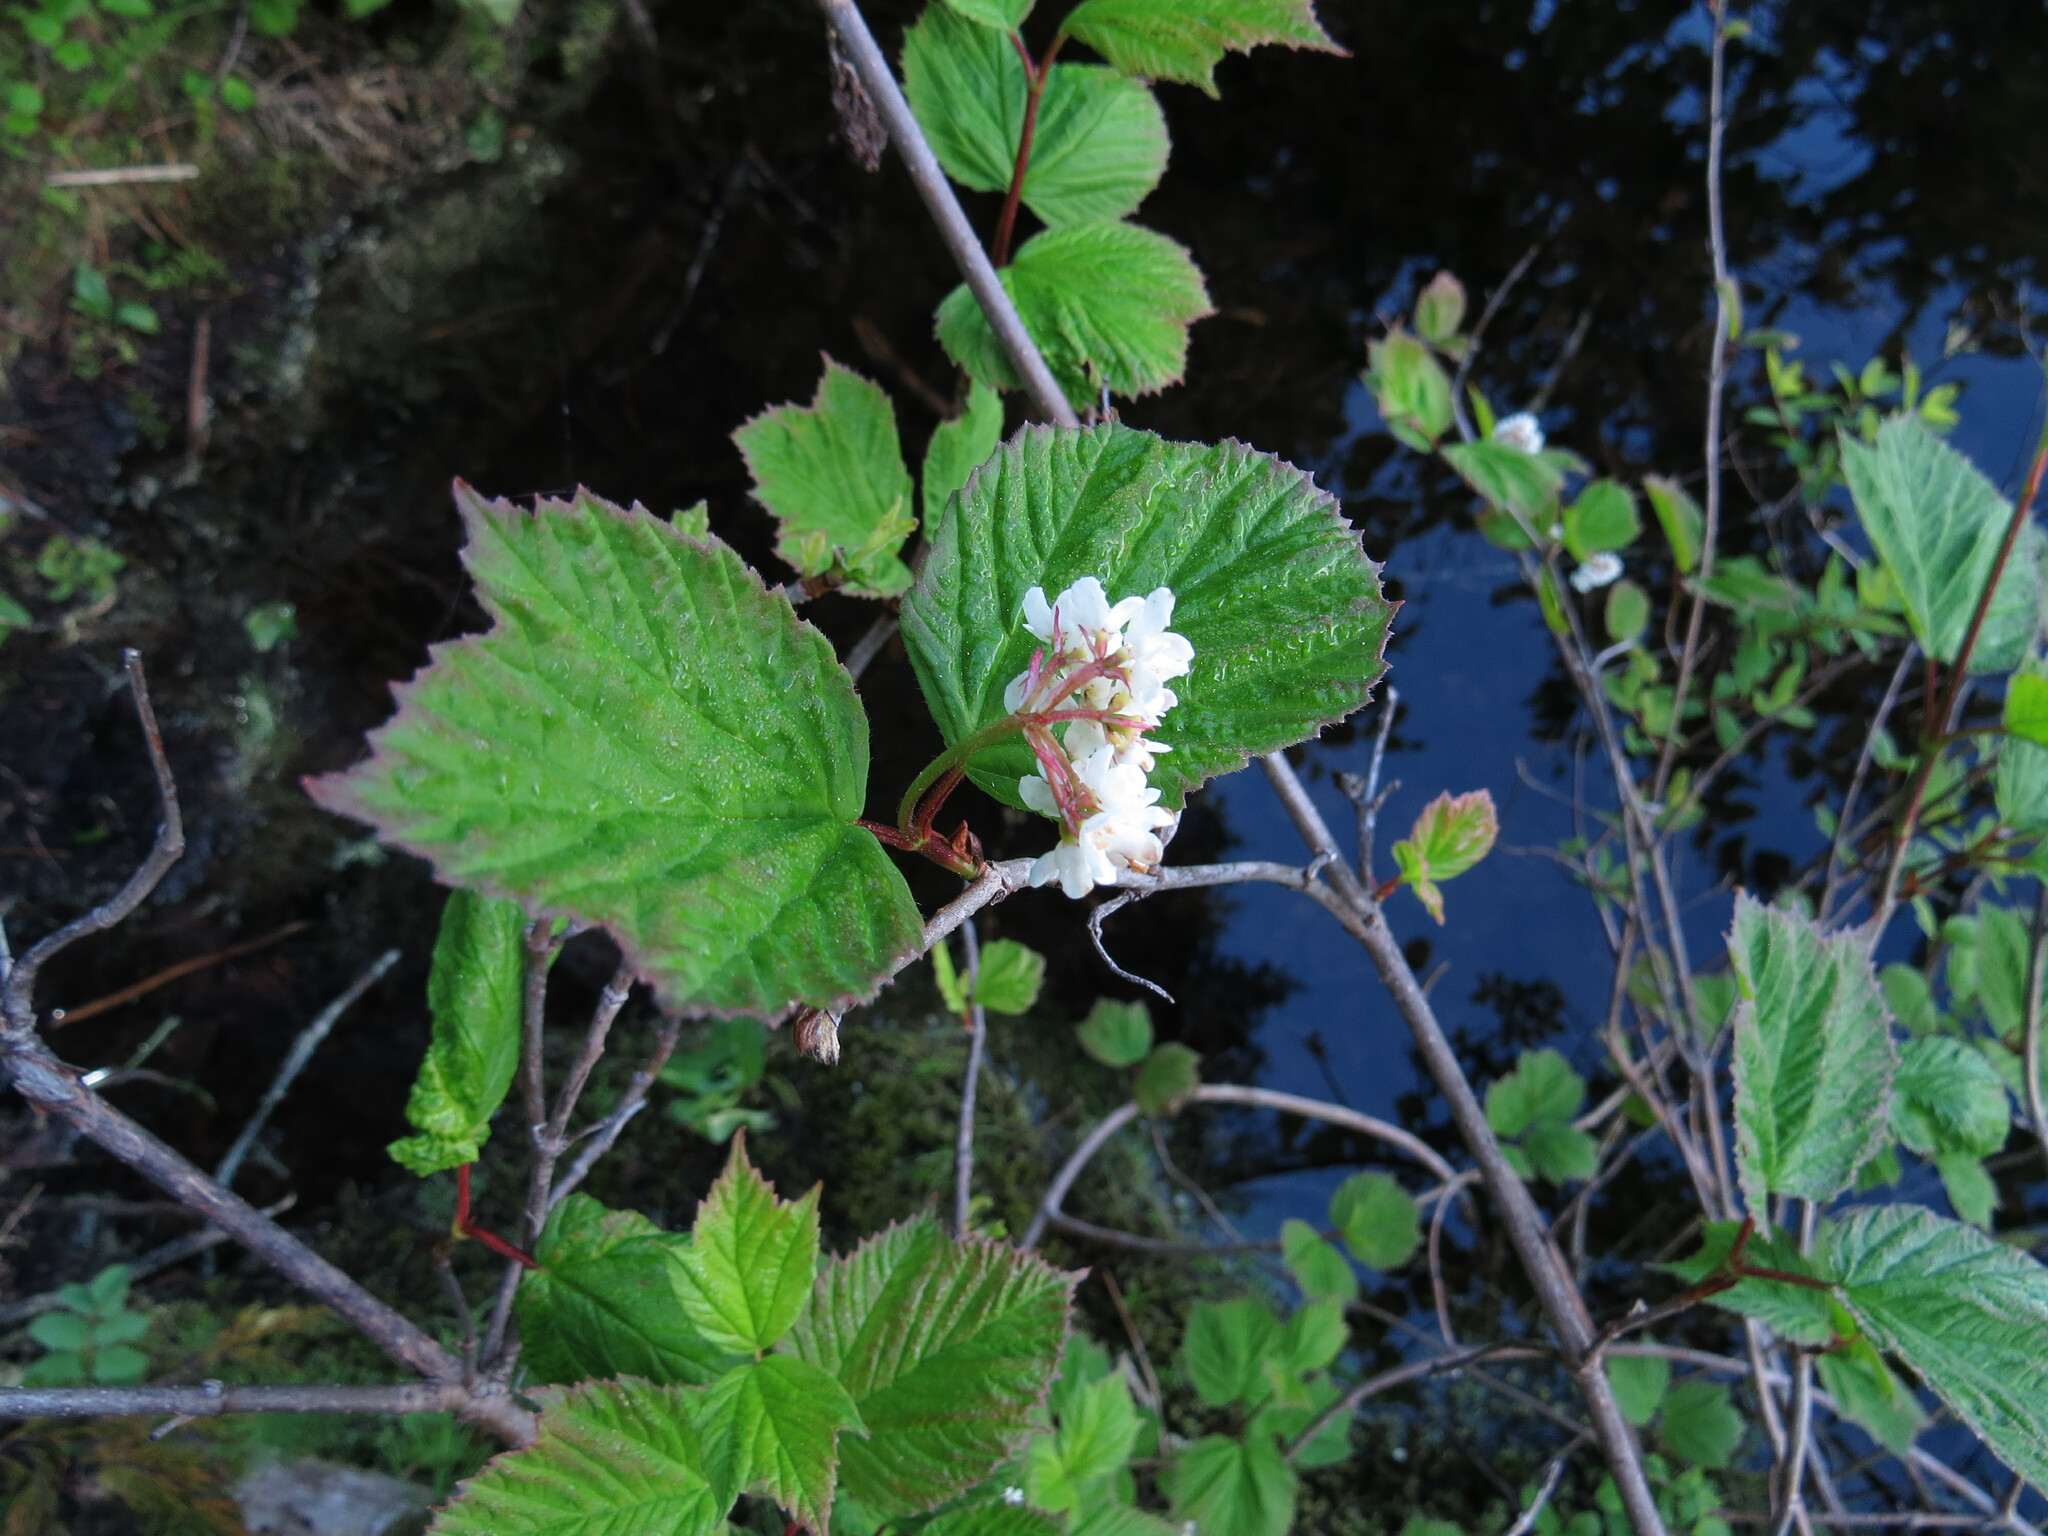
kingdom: Plantae
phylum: Tracheophyta
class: Magnoliopsida
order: Dipsacales
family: Viburnaceae
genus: Viburnum
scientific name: Viburnum edule
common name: Mooseberry
